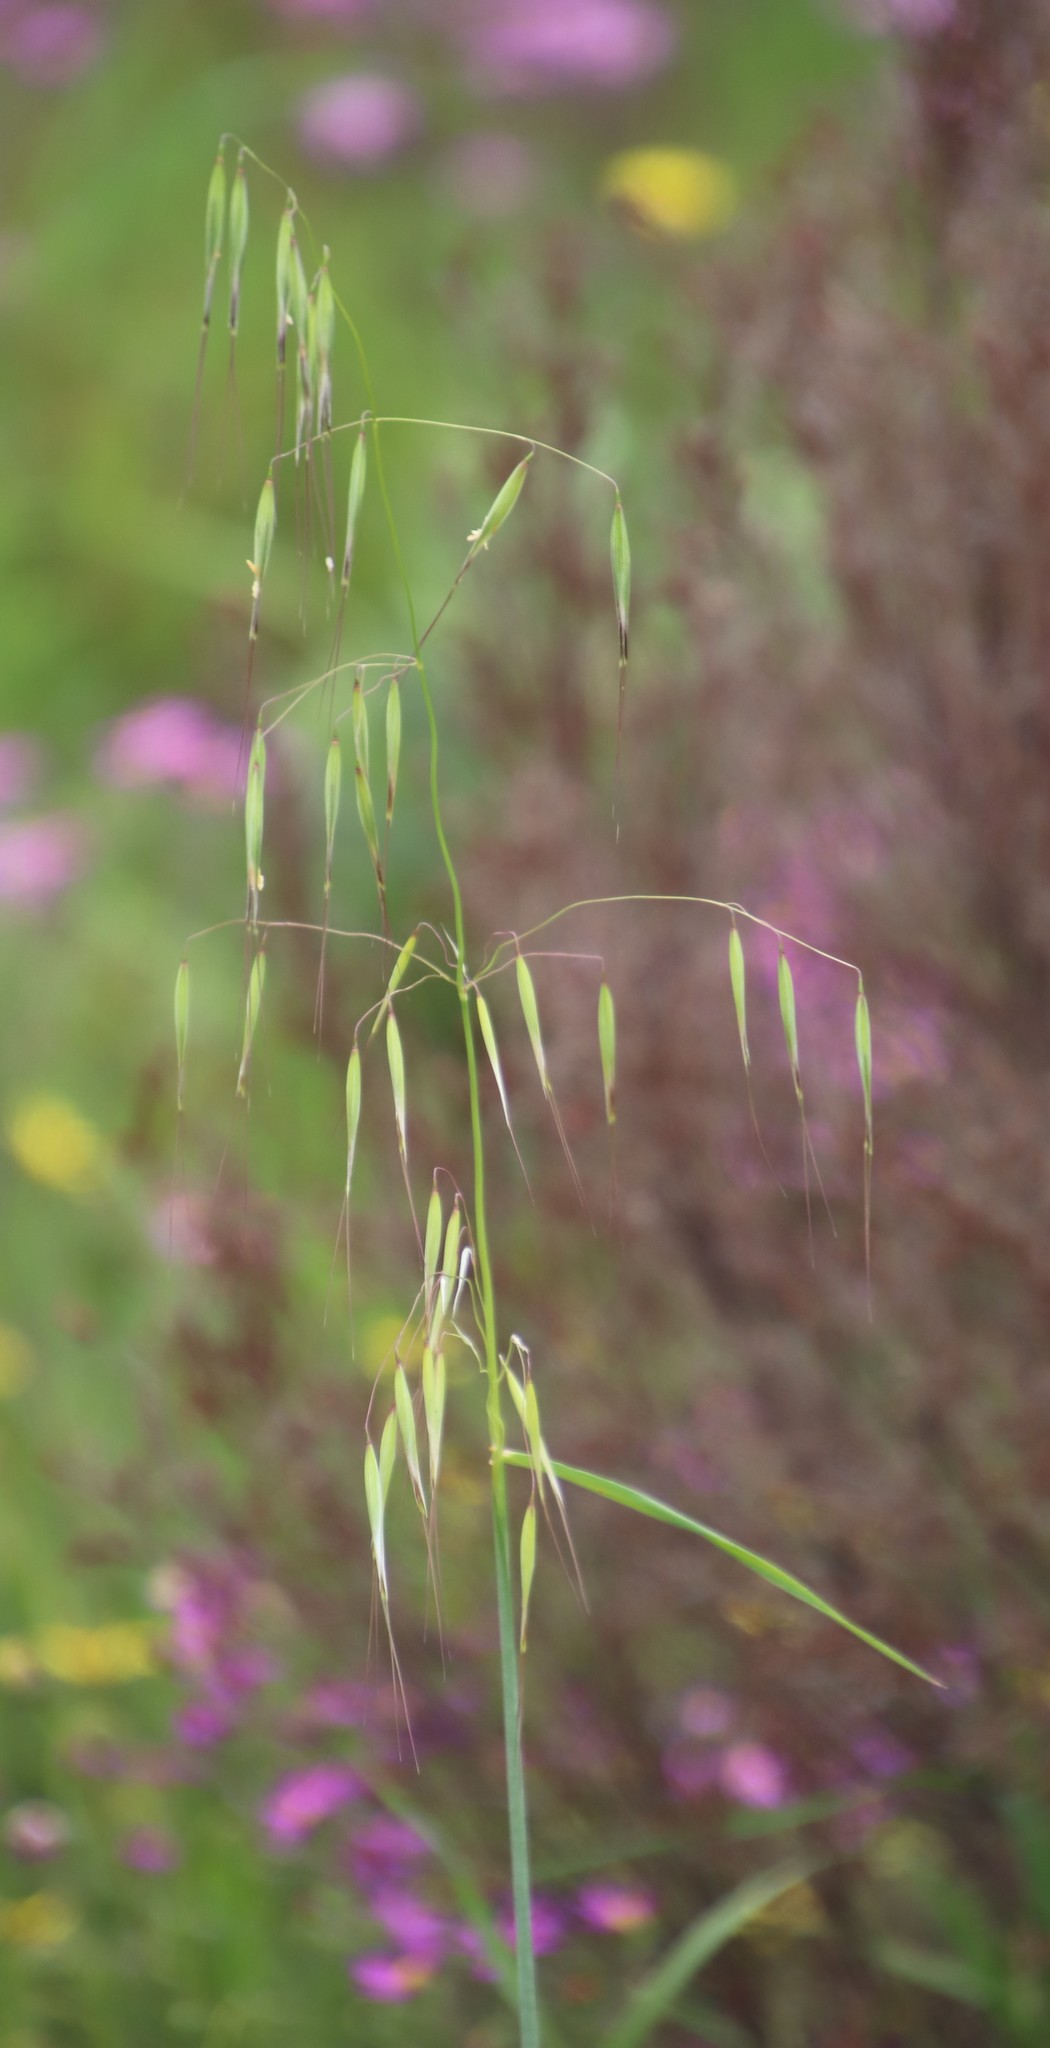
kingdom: Plantae
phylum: Tracheophyta
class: Liliopsida
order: Poales
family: Poaceae
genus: Avena
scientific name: Avena fatua
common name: Wild oat
